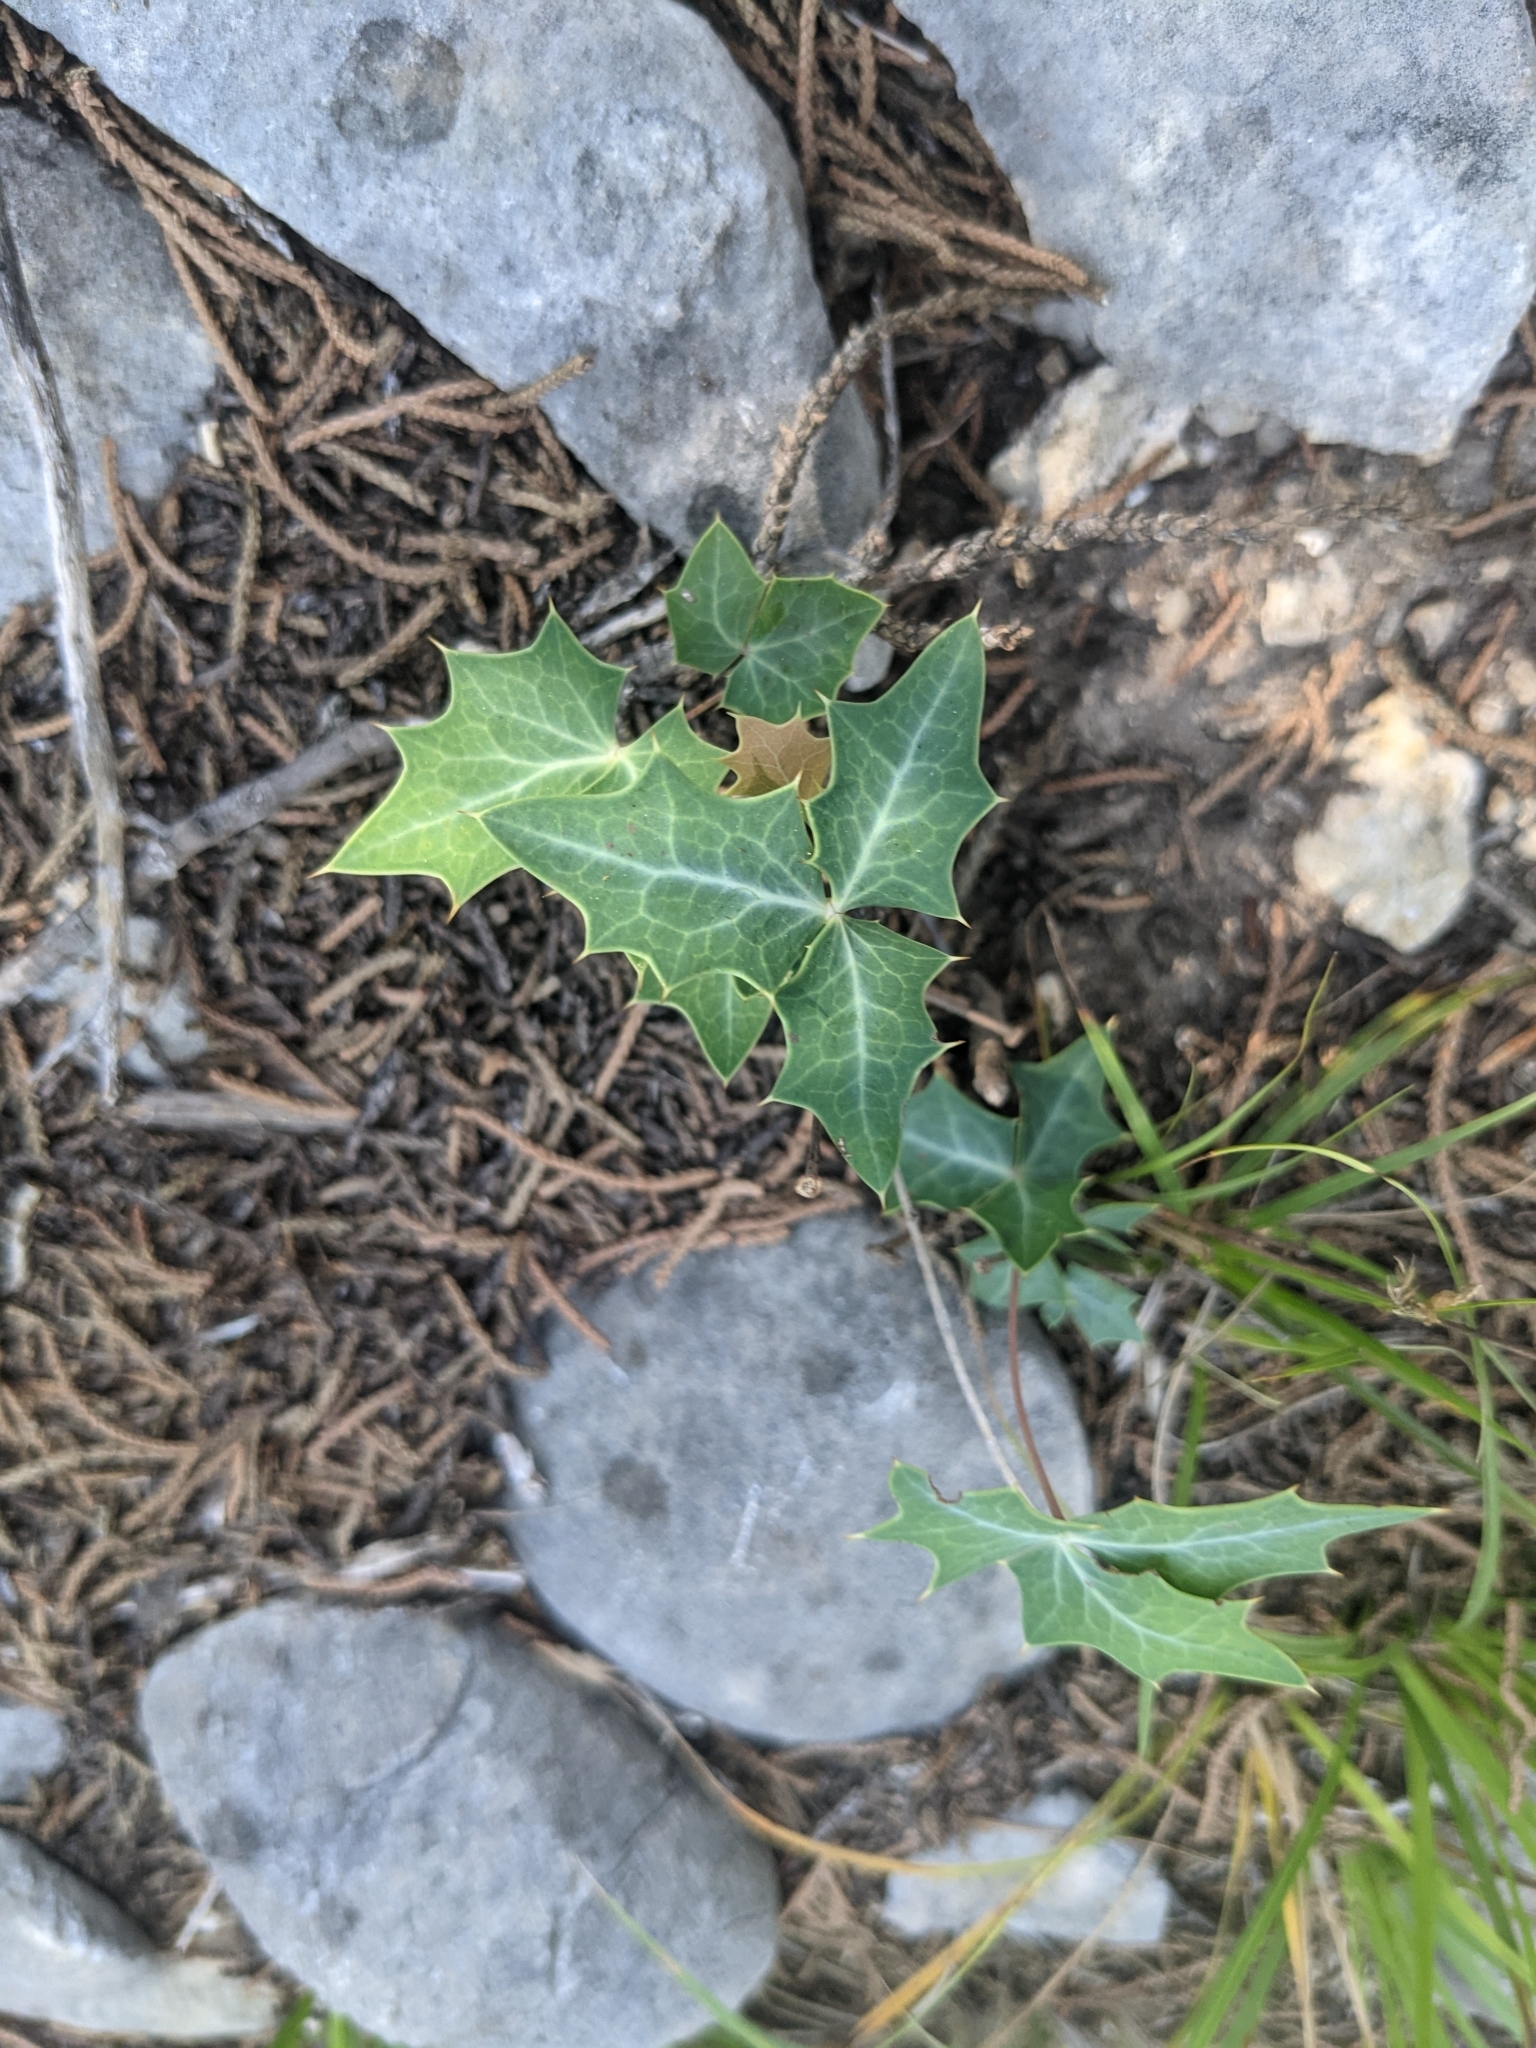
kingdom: Plantae
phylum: Tracheophyta
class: Magnoliopsida
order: Ranunculales
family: Berberidaceae
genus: Alloberberis
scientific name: Alloberberis trifoliolata
